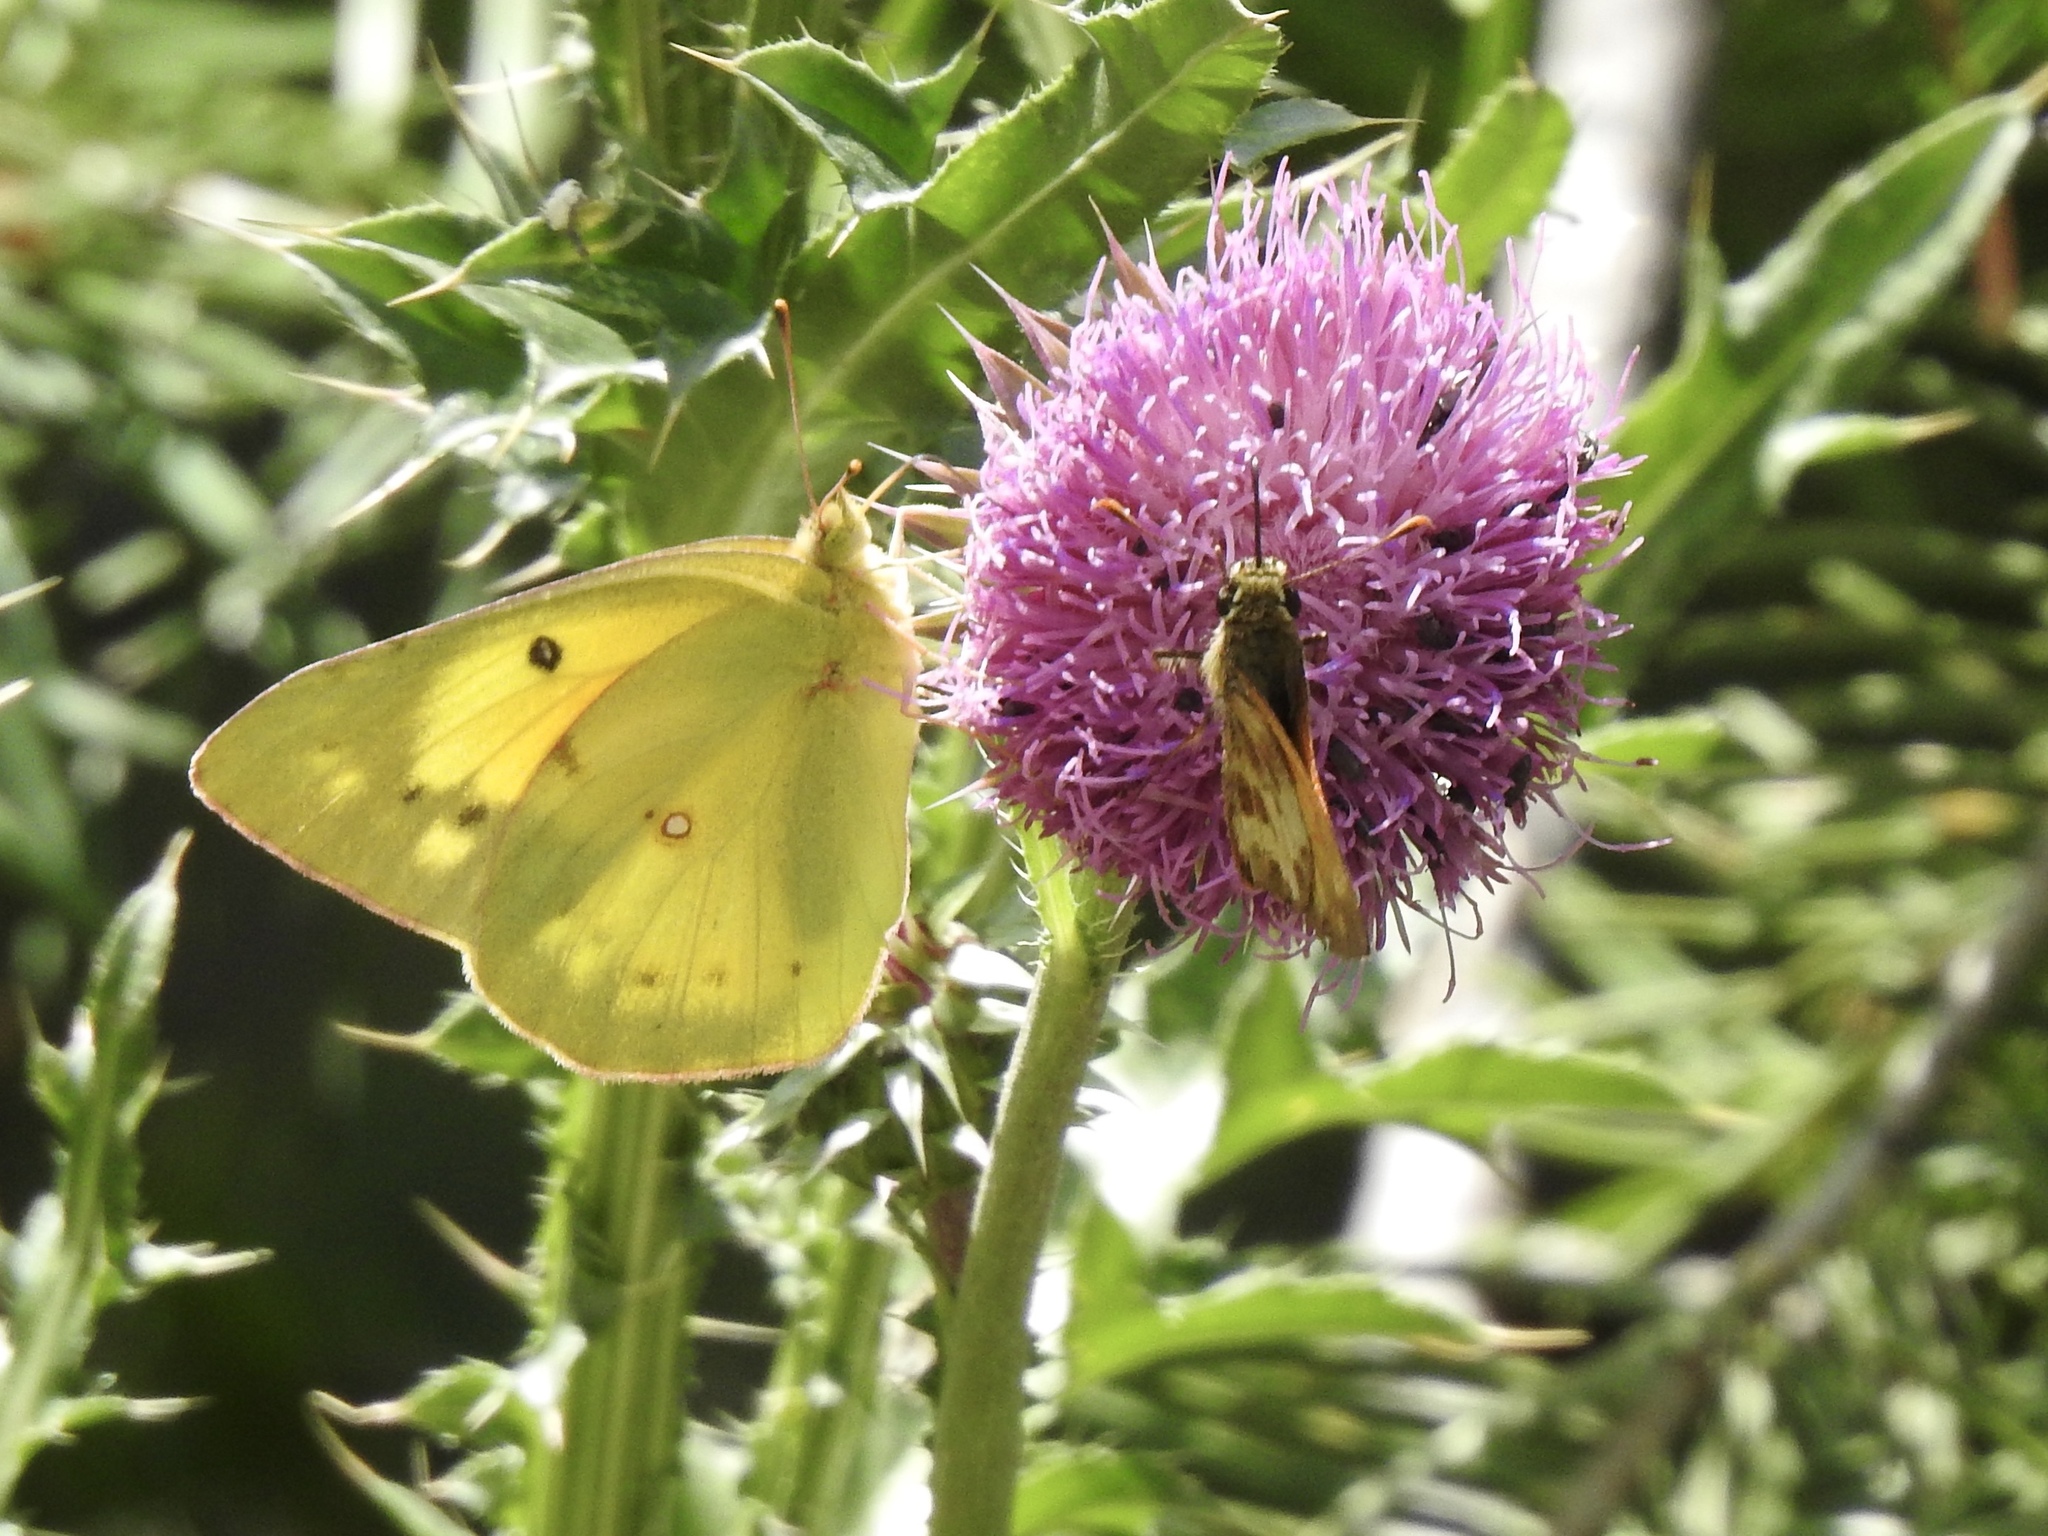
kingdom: Animalia
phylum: Arthropoda
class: Insecta
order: Lepidoptera
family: Pieridae
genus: Colias
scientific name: Colias eurytheme
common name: Alfalfa butterfly
